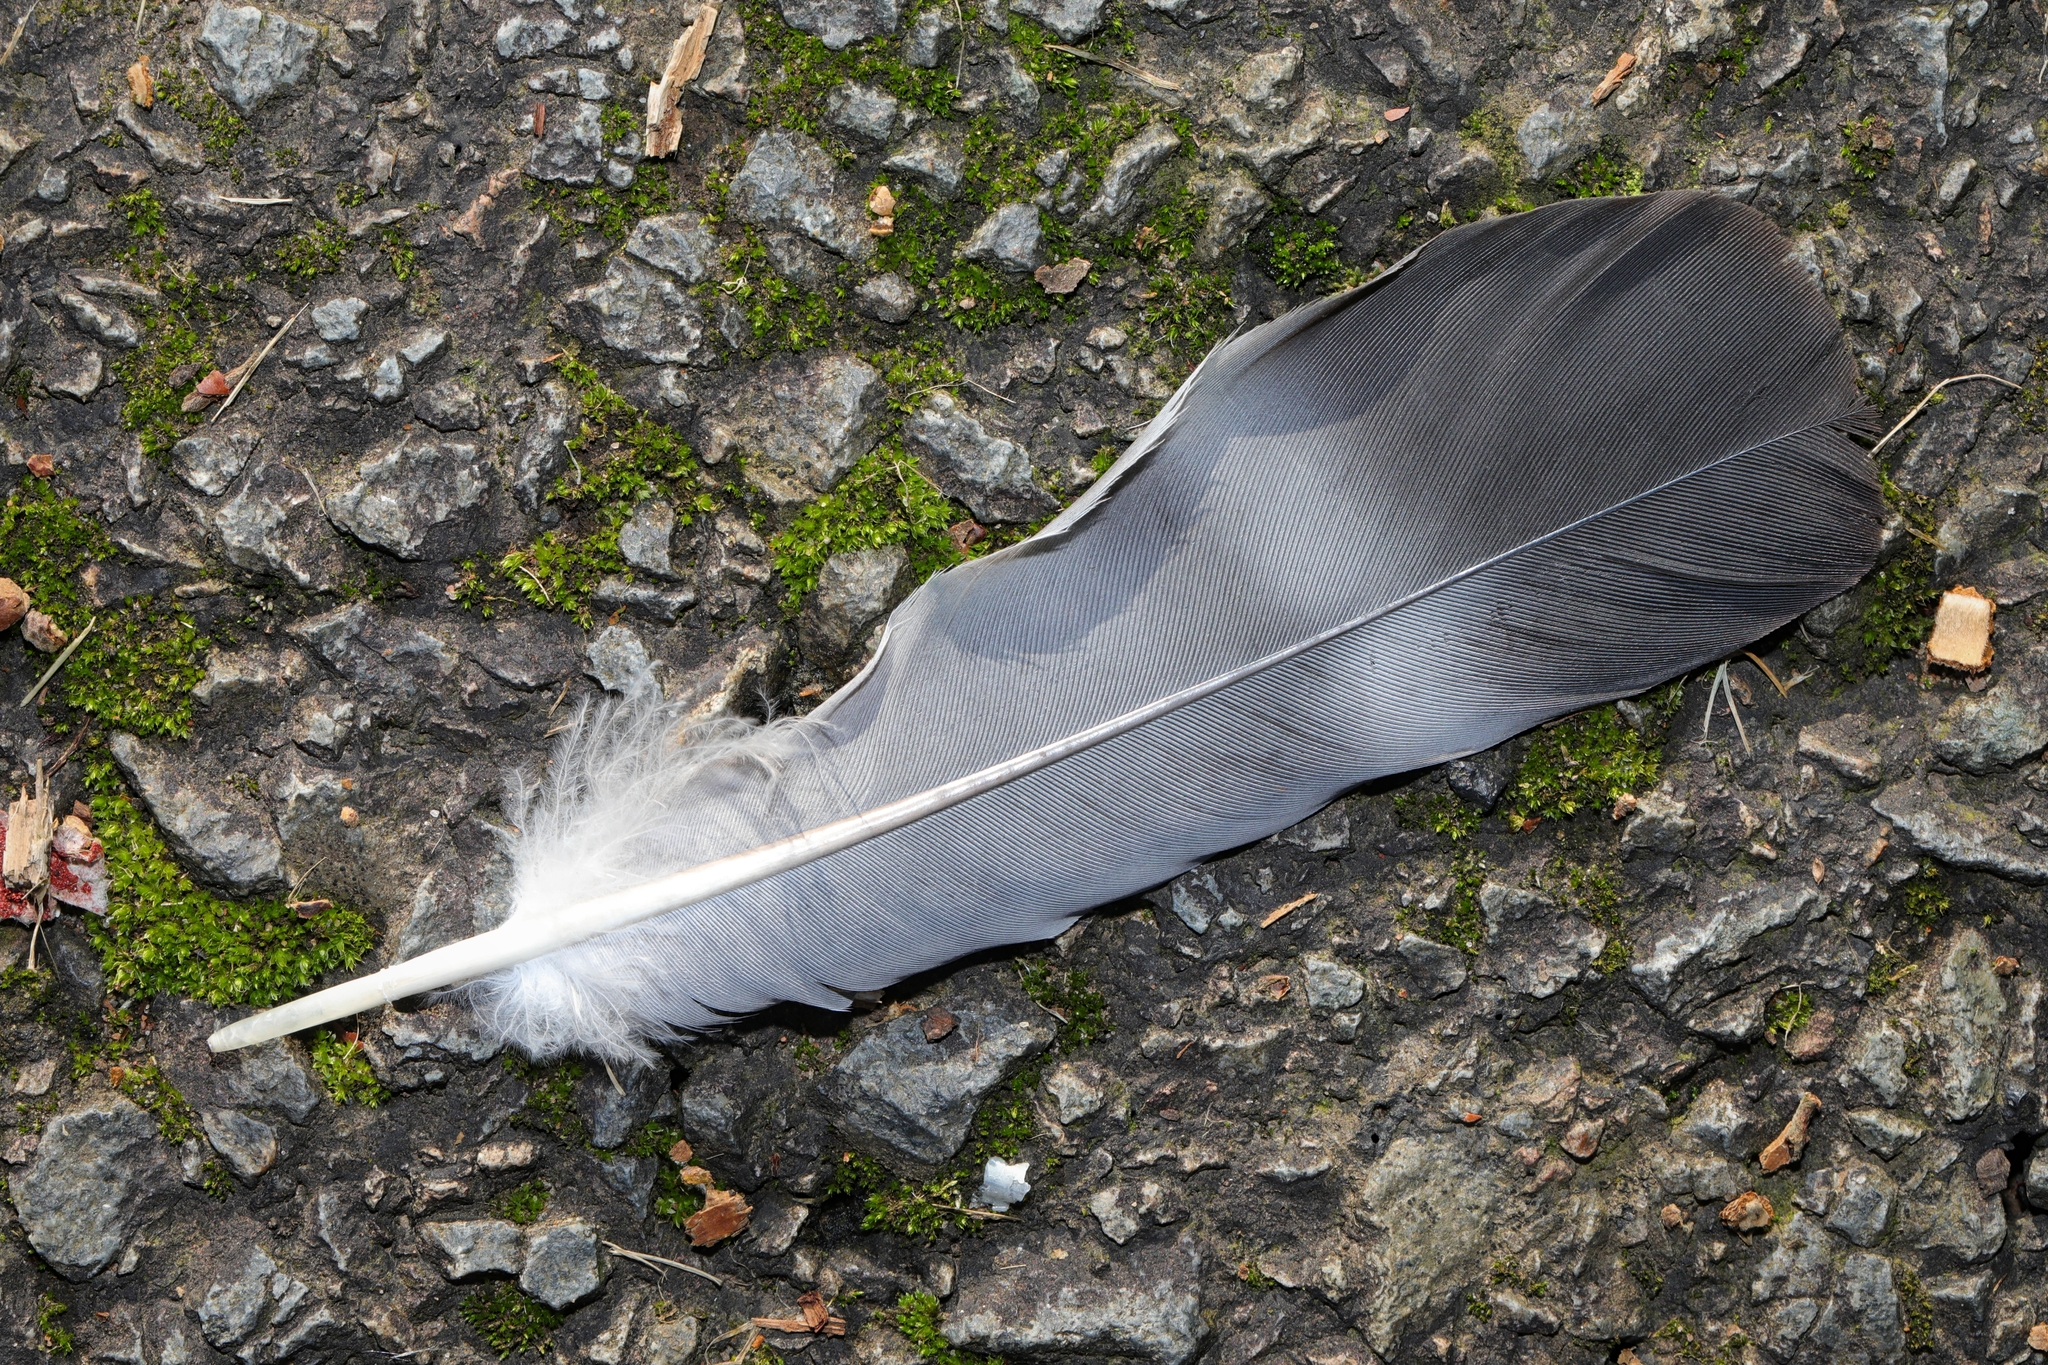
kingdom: Animalia
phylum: Chordata
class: Aves
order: Columbiformes
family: Columbidae
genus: Columba
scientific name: Columba palumbus
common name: Common wood pigeon
